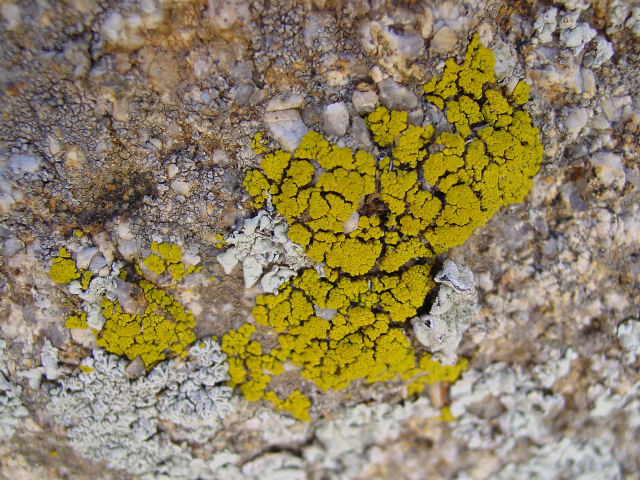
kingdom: Fungi
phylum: Ascomycota
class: Candelariomycetes
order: Candelariales
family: Candelariaceae
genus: Candelariella
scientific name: Candelariella rosulans
